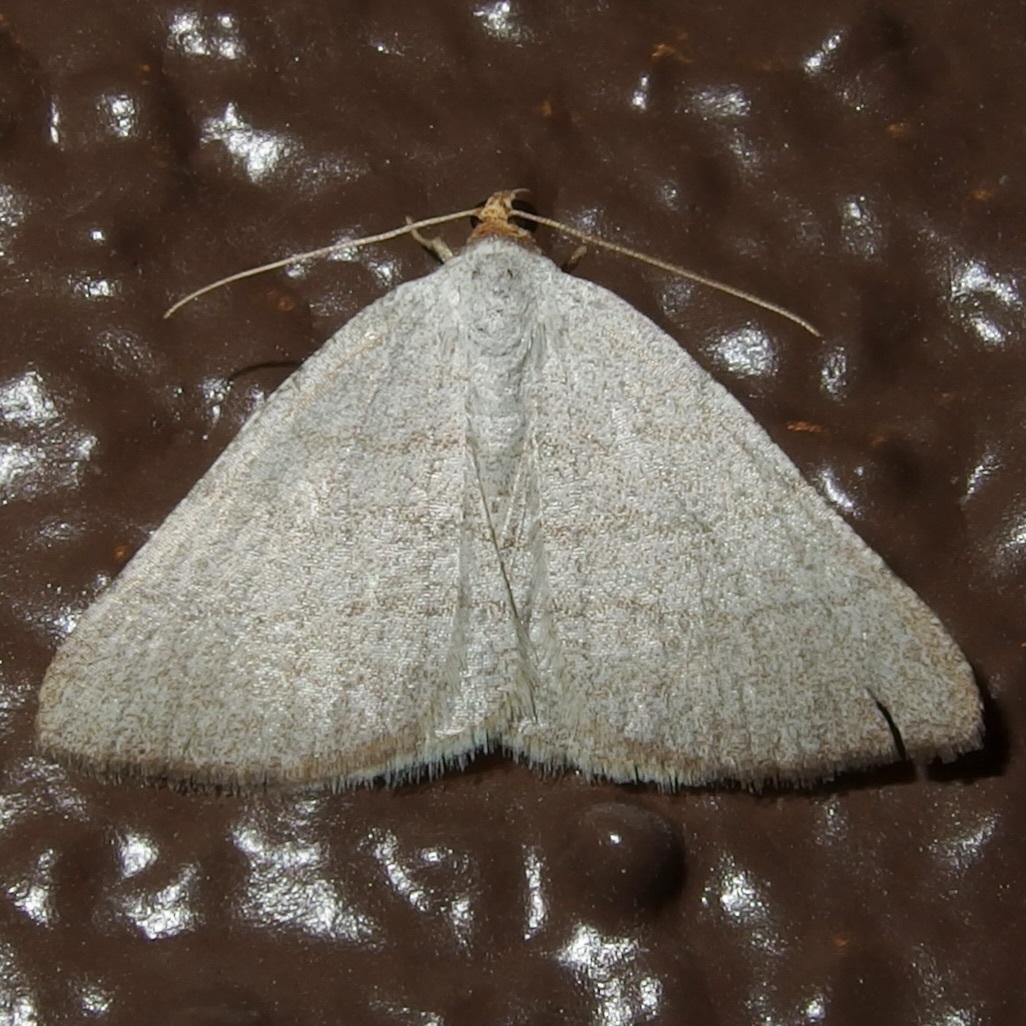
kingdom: Animalia
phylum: Arthropoda
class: Insecta
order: Lepidoptera
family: Geometridae
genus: Macaria
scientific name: Macaria tenebrosata
